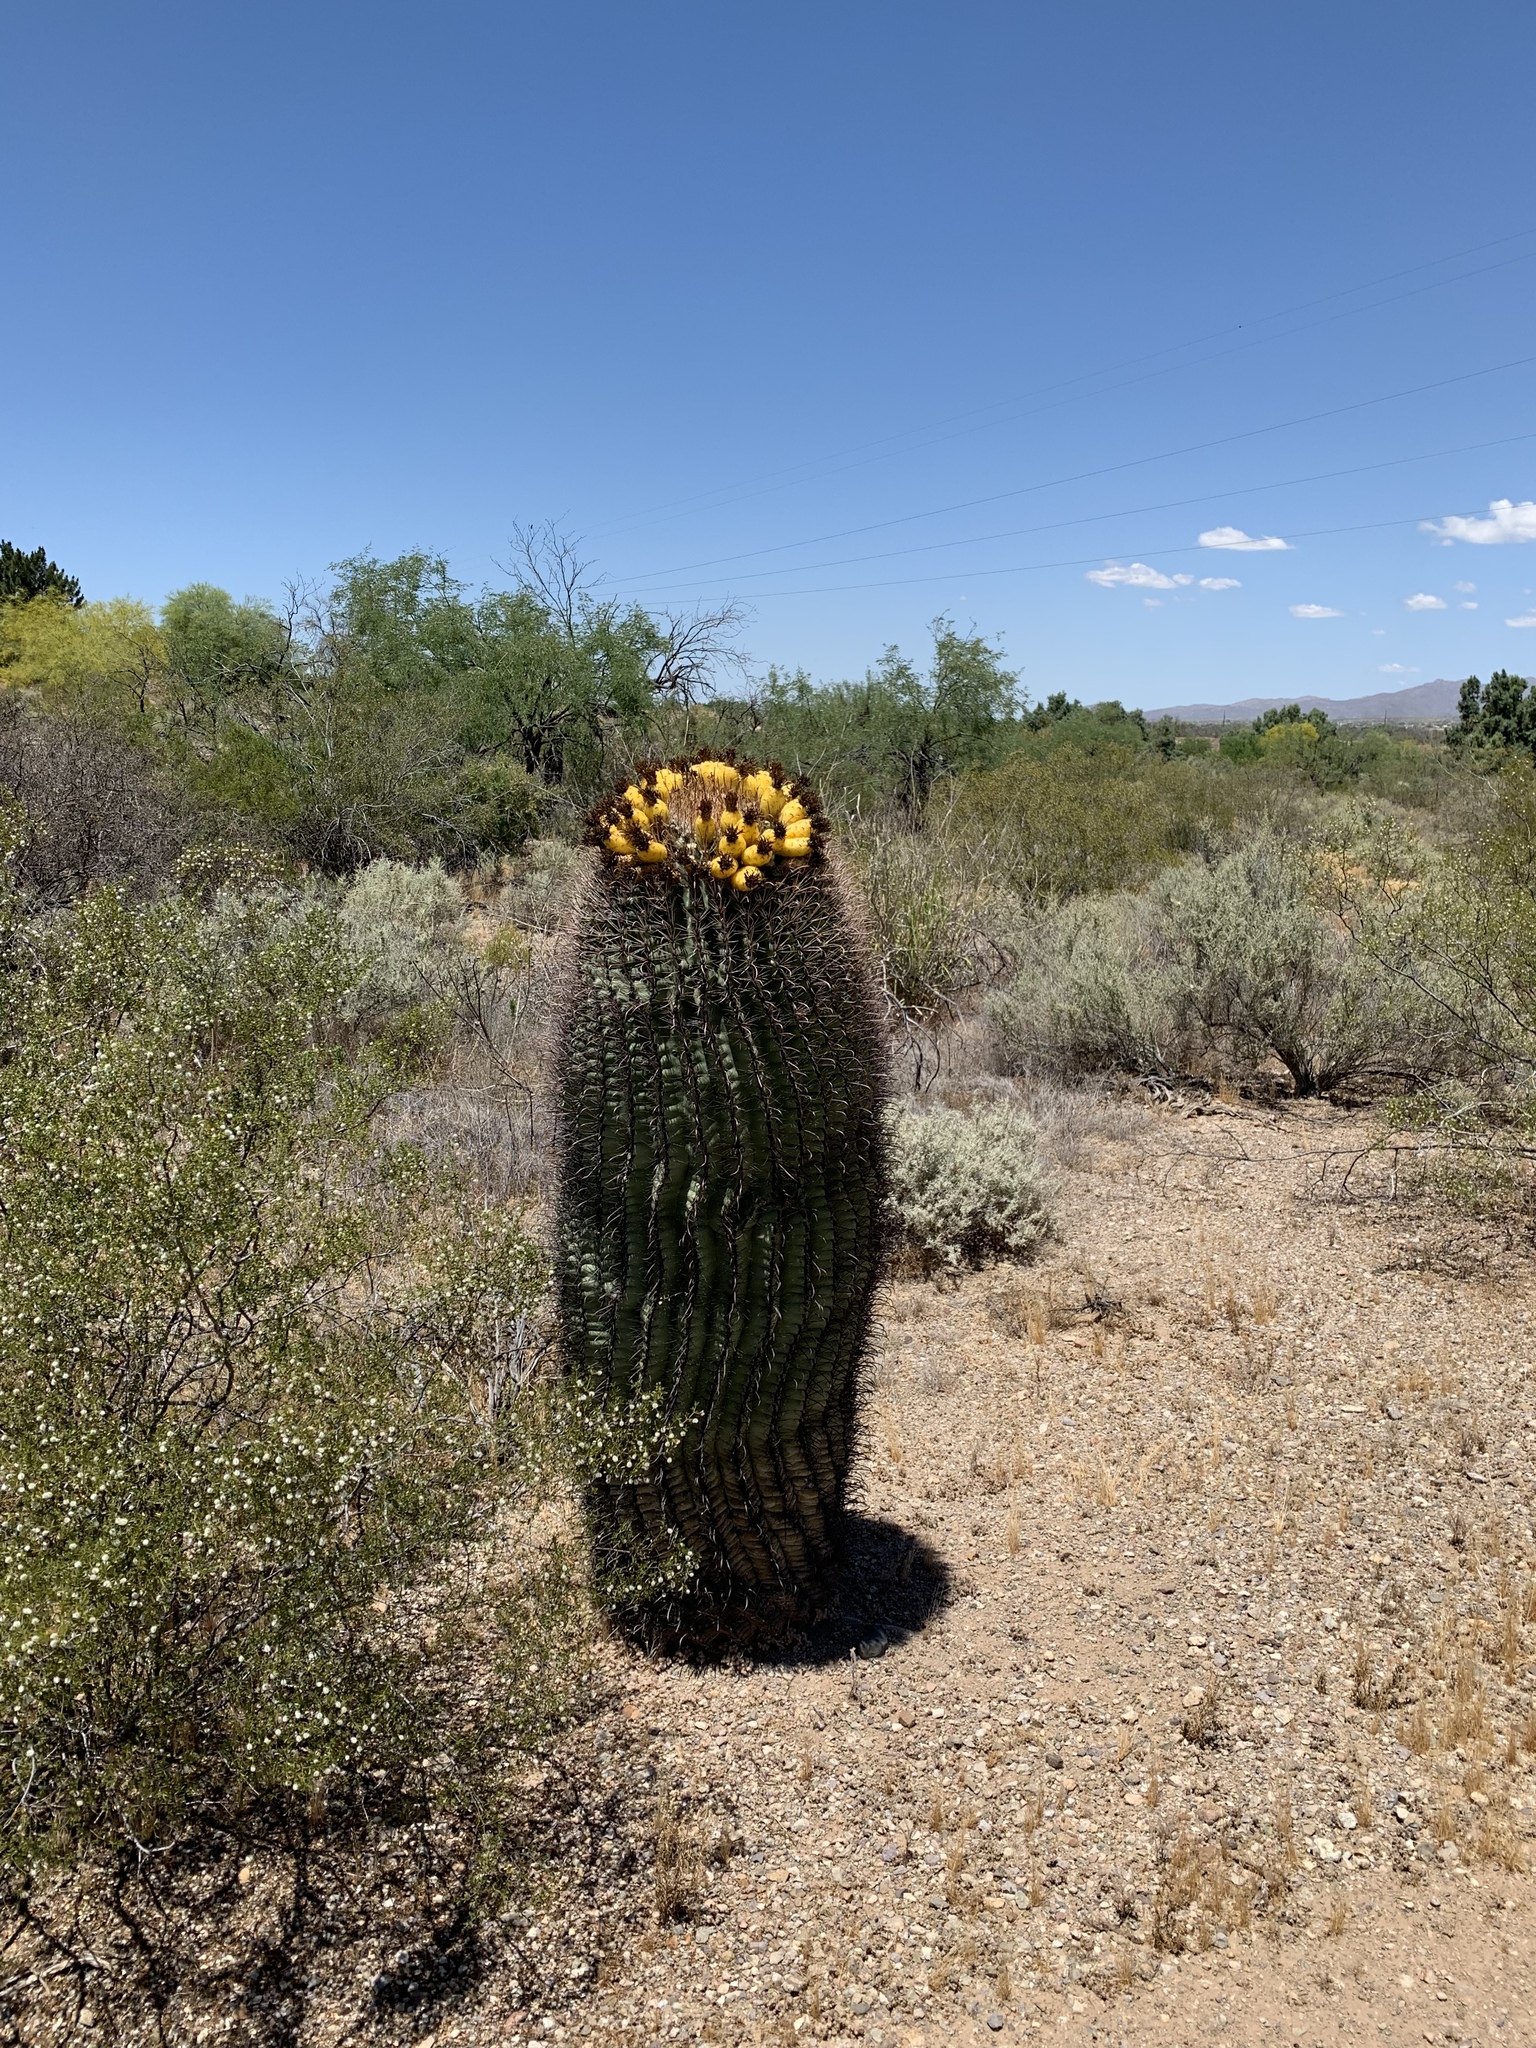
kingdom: Plantae
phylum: Tracheophyta
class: Magnoliopsida
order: Caryophyllales
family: Cactaceae
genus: Ferocactus
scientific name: Ferocactus wislizeni
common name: Candy barrel cactus
